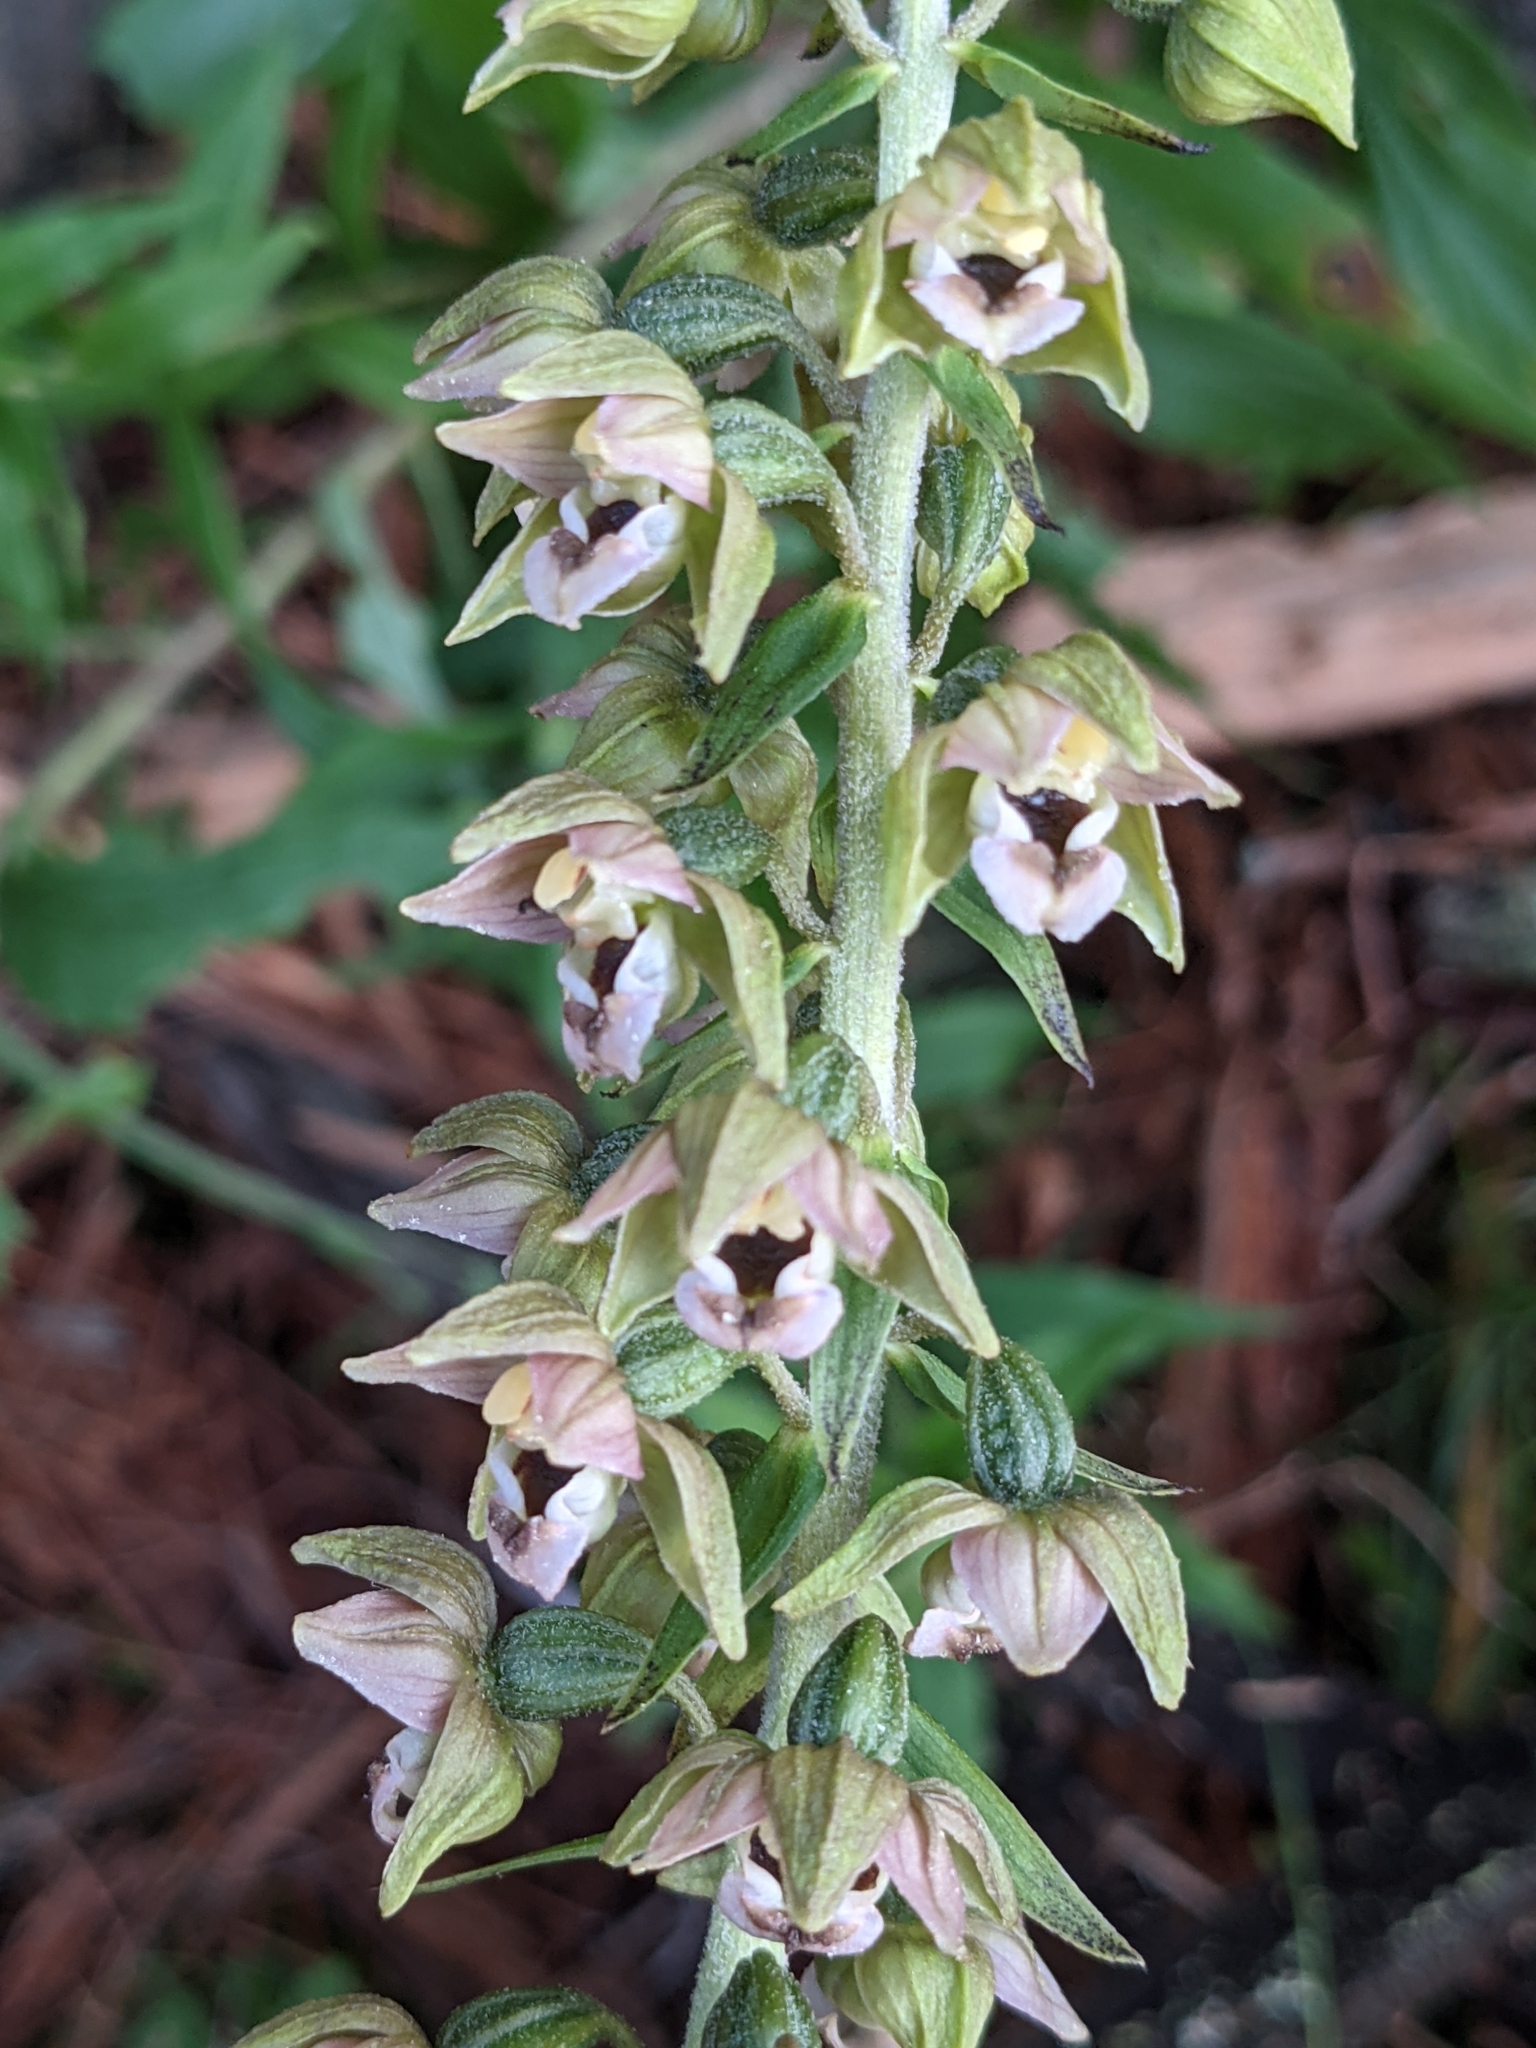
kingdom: Plantae
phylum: Tracheophyta
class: Liliopsida
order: Asparagales
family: Orchidaceae
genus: Epipactis
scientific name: Epipactis helleborine
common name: Broad-leaved helleborine
